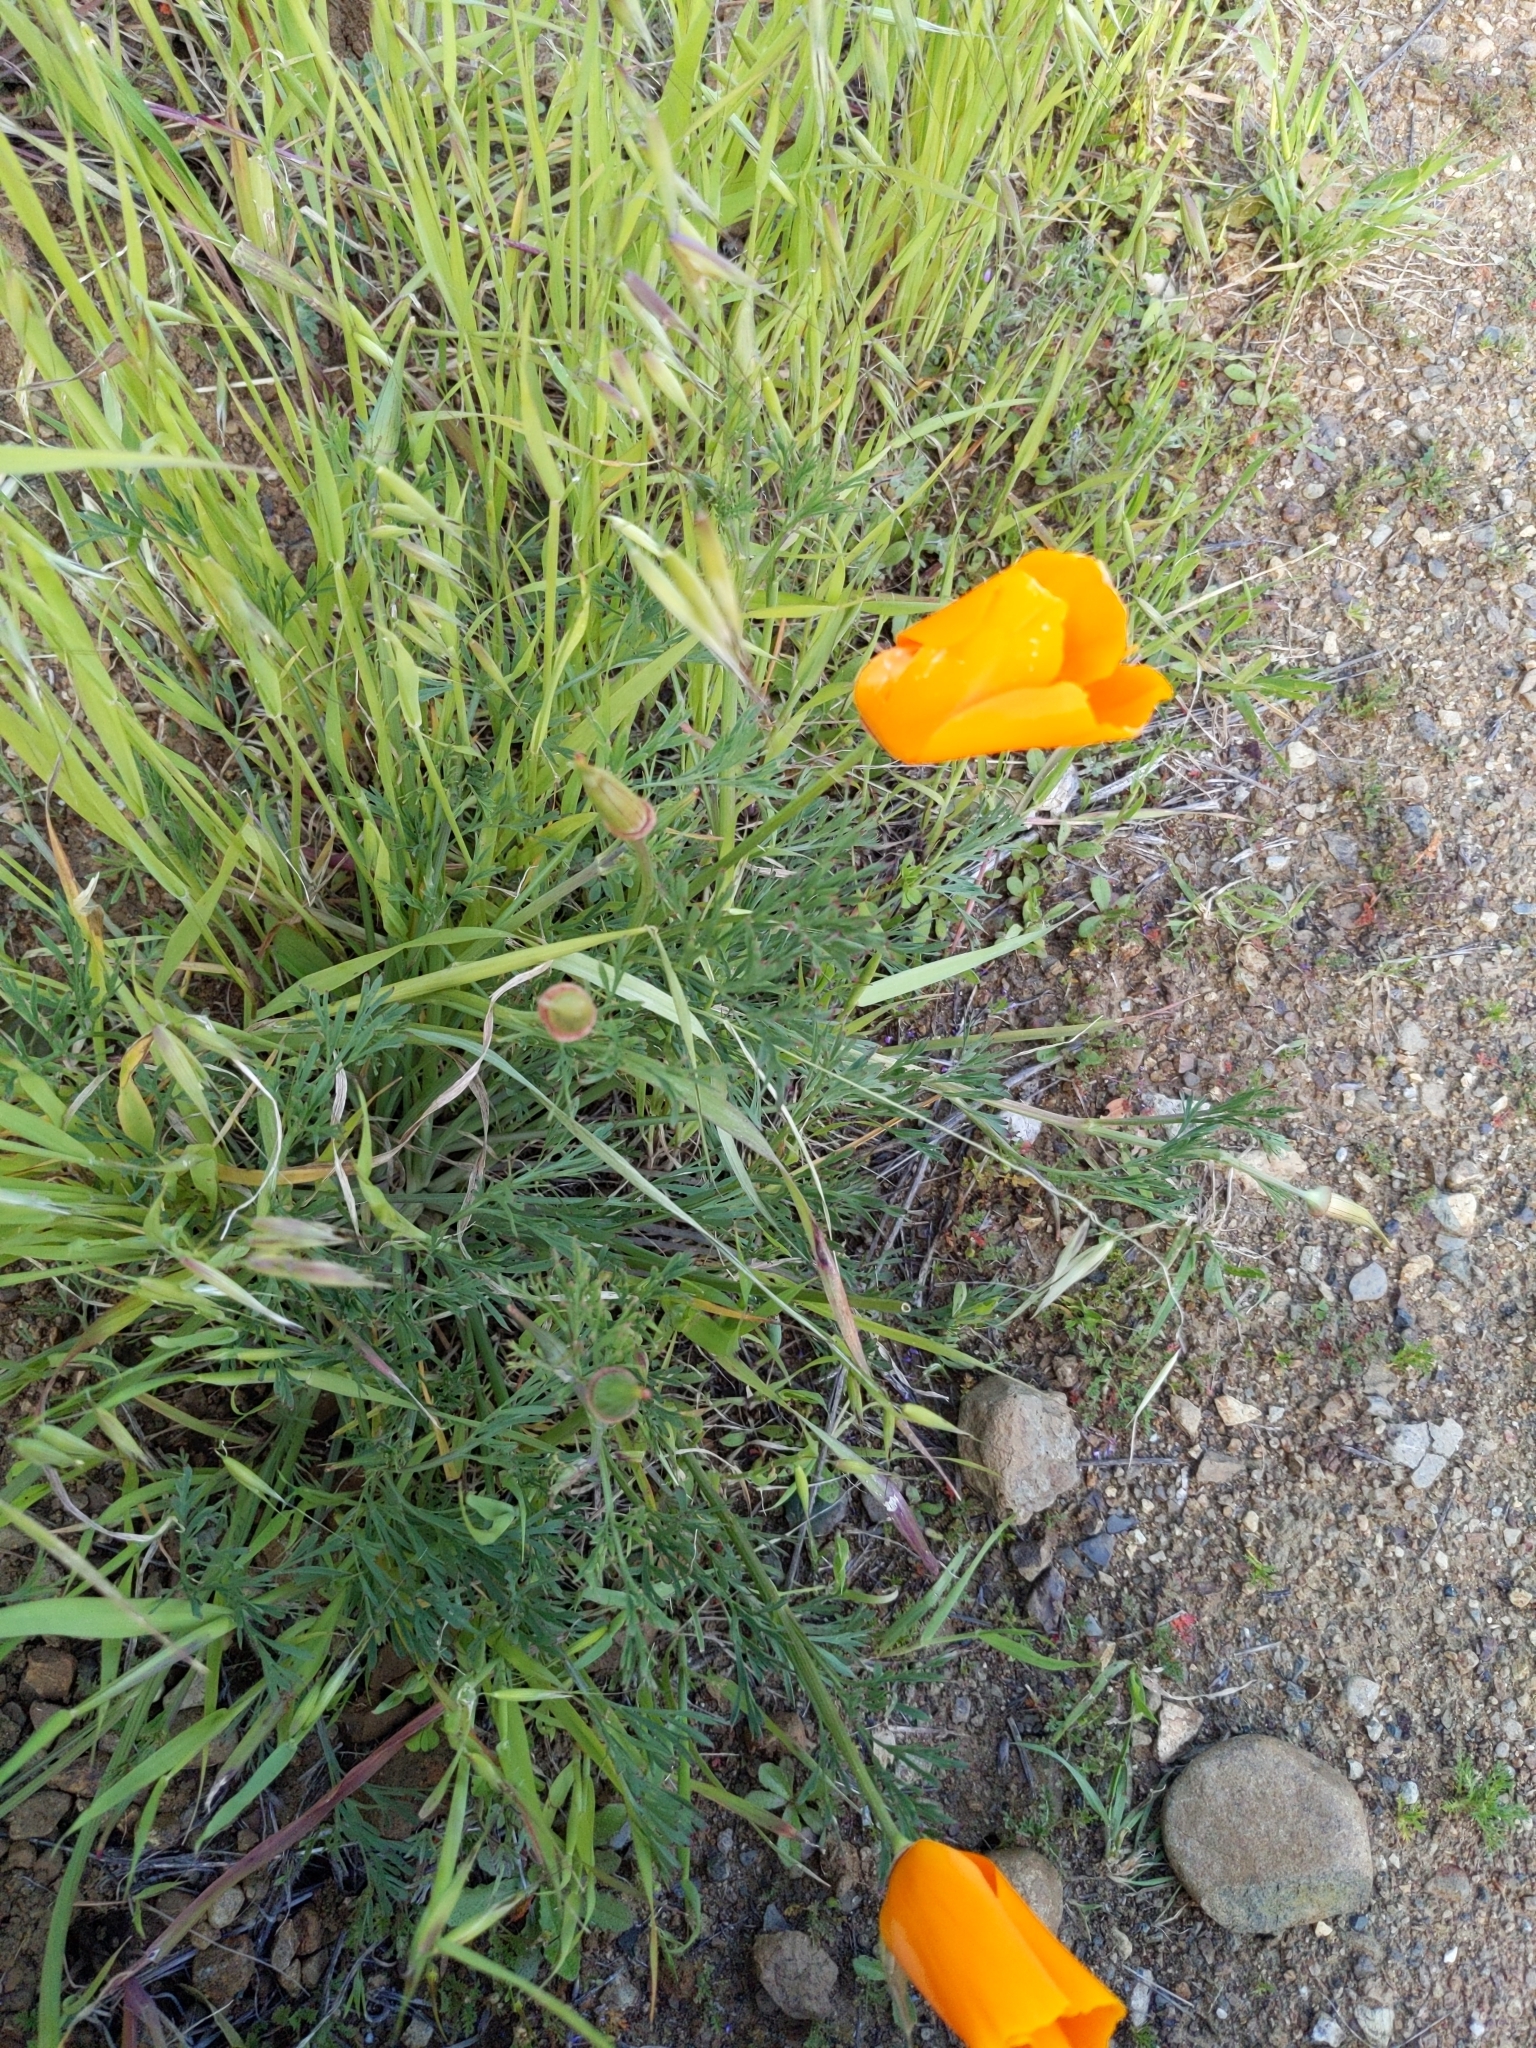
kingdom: Plantae
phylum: Tracheophyta
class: Magnoliopsida
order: Ranunculales
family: Papaveraceae
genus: Eschscholzia
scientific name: Eschscholzia californica
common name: California poppy
